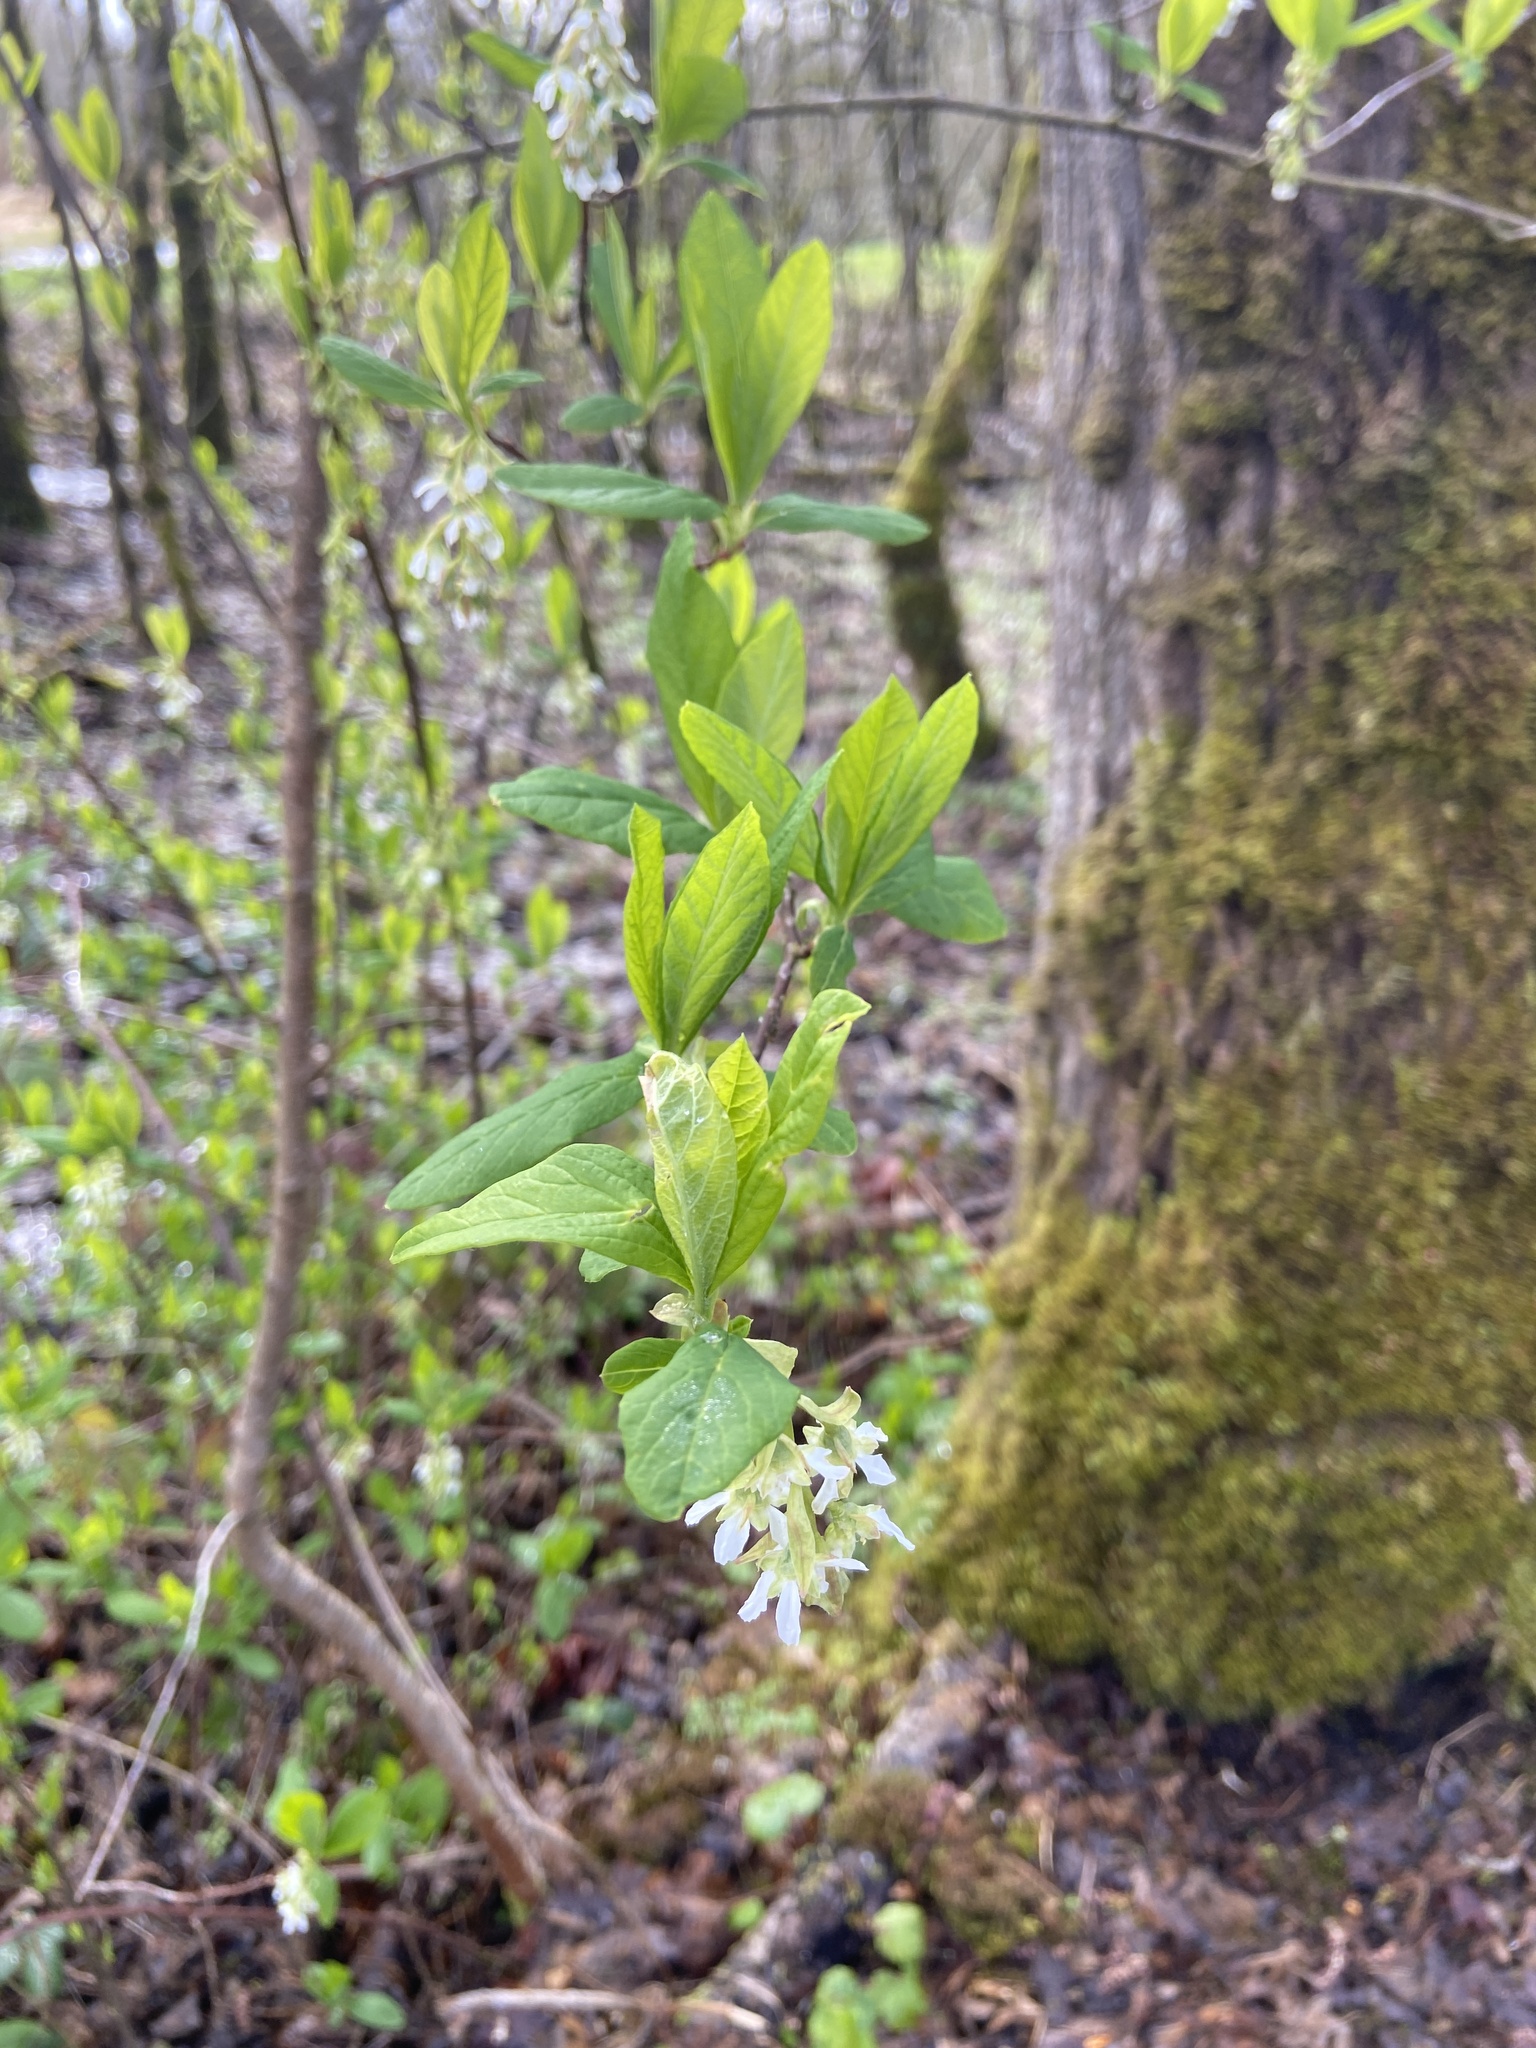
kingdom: Plantae
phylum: Tracheophyta
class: Magnoliopsida
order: Rosales
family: Rosaceae
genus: Oemleria
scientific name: Oemleria cerasiformis
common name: Osoberry
